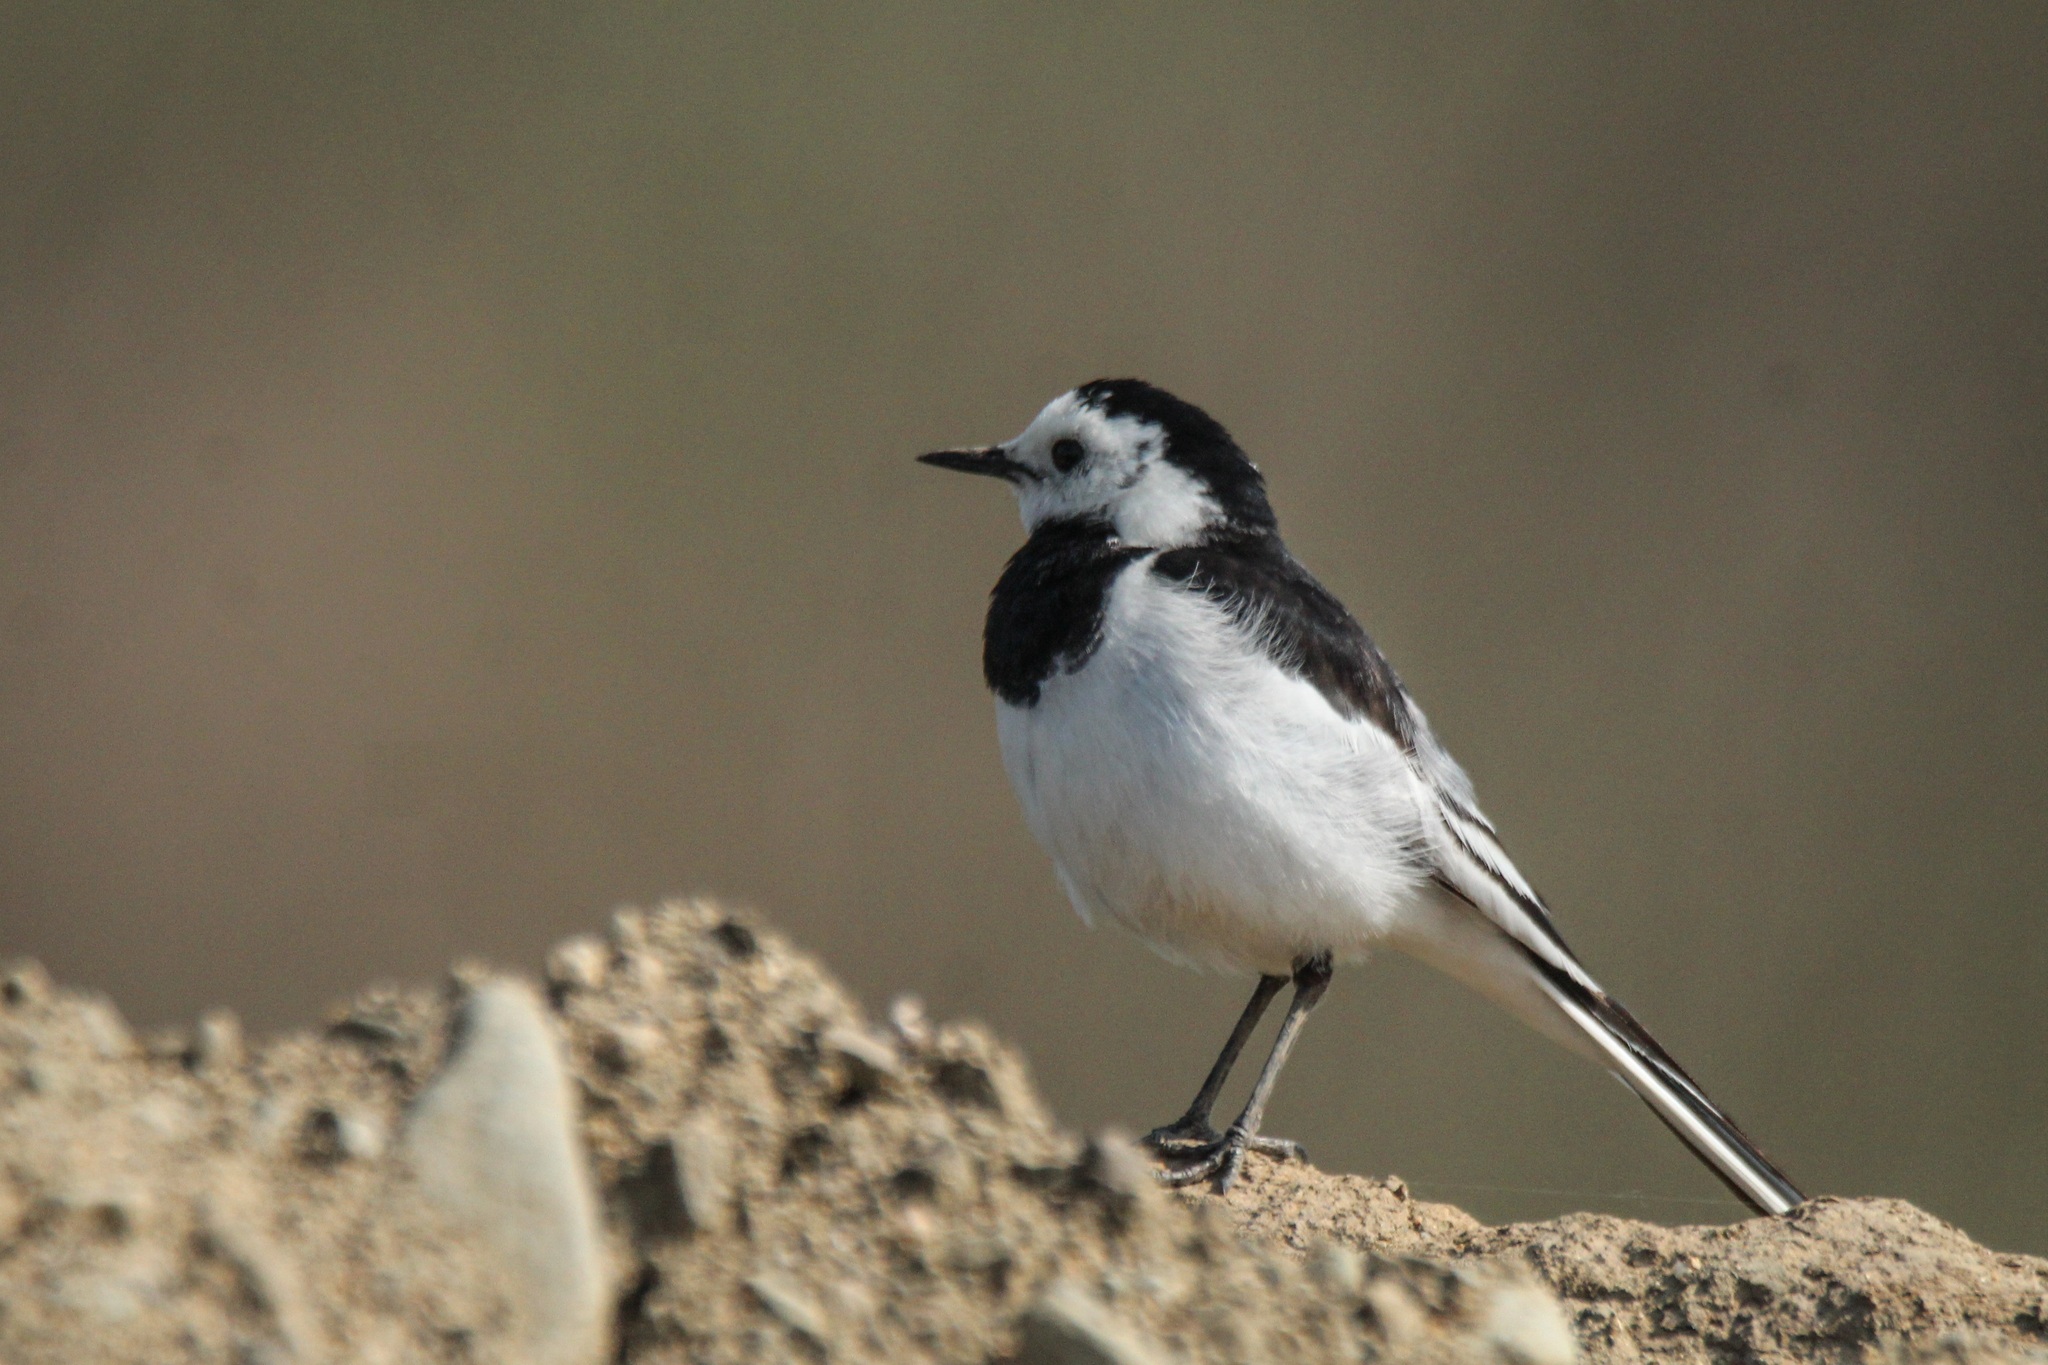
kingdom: Animalia
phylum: Chordata
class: Aves
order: Passeriformes
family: Motacillidae
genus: Motacilla
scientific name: Motacilla alba
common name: White wagtail
